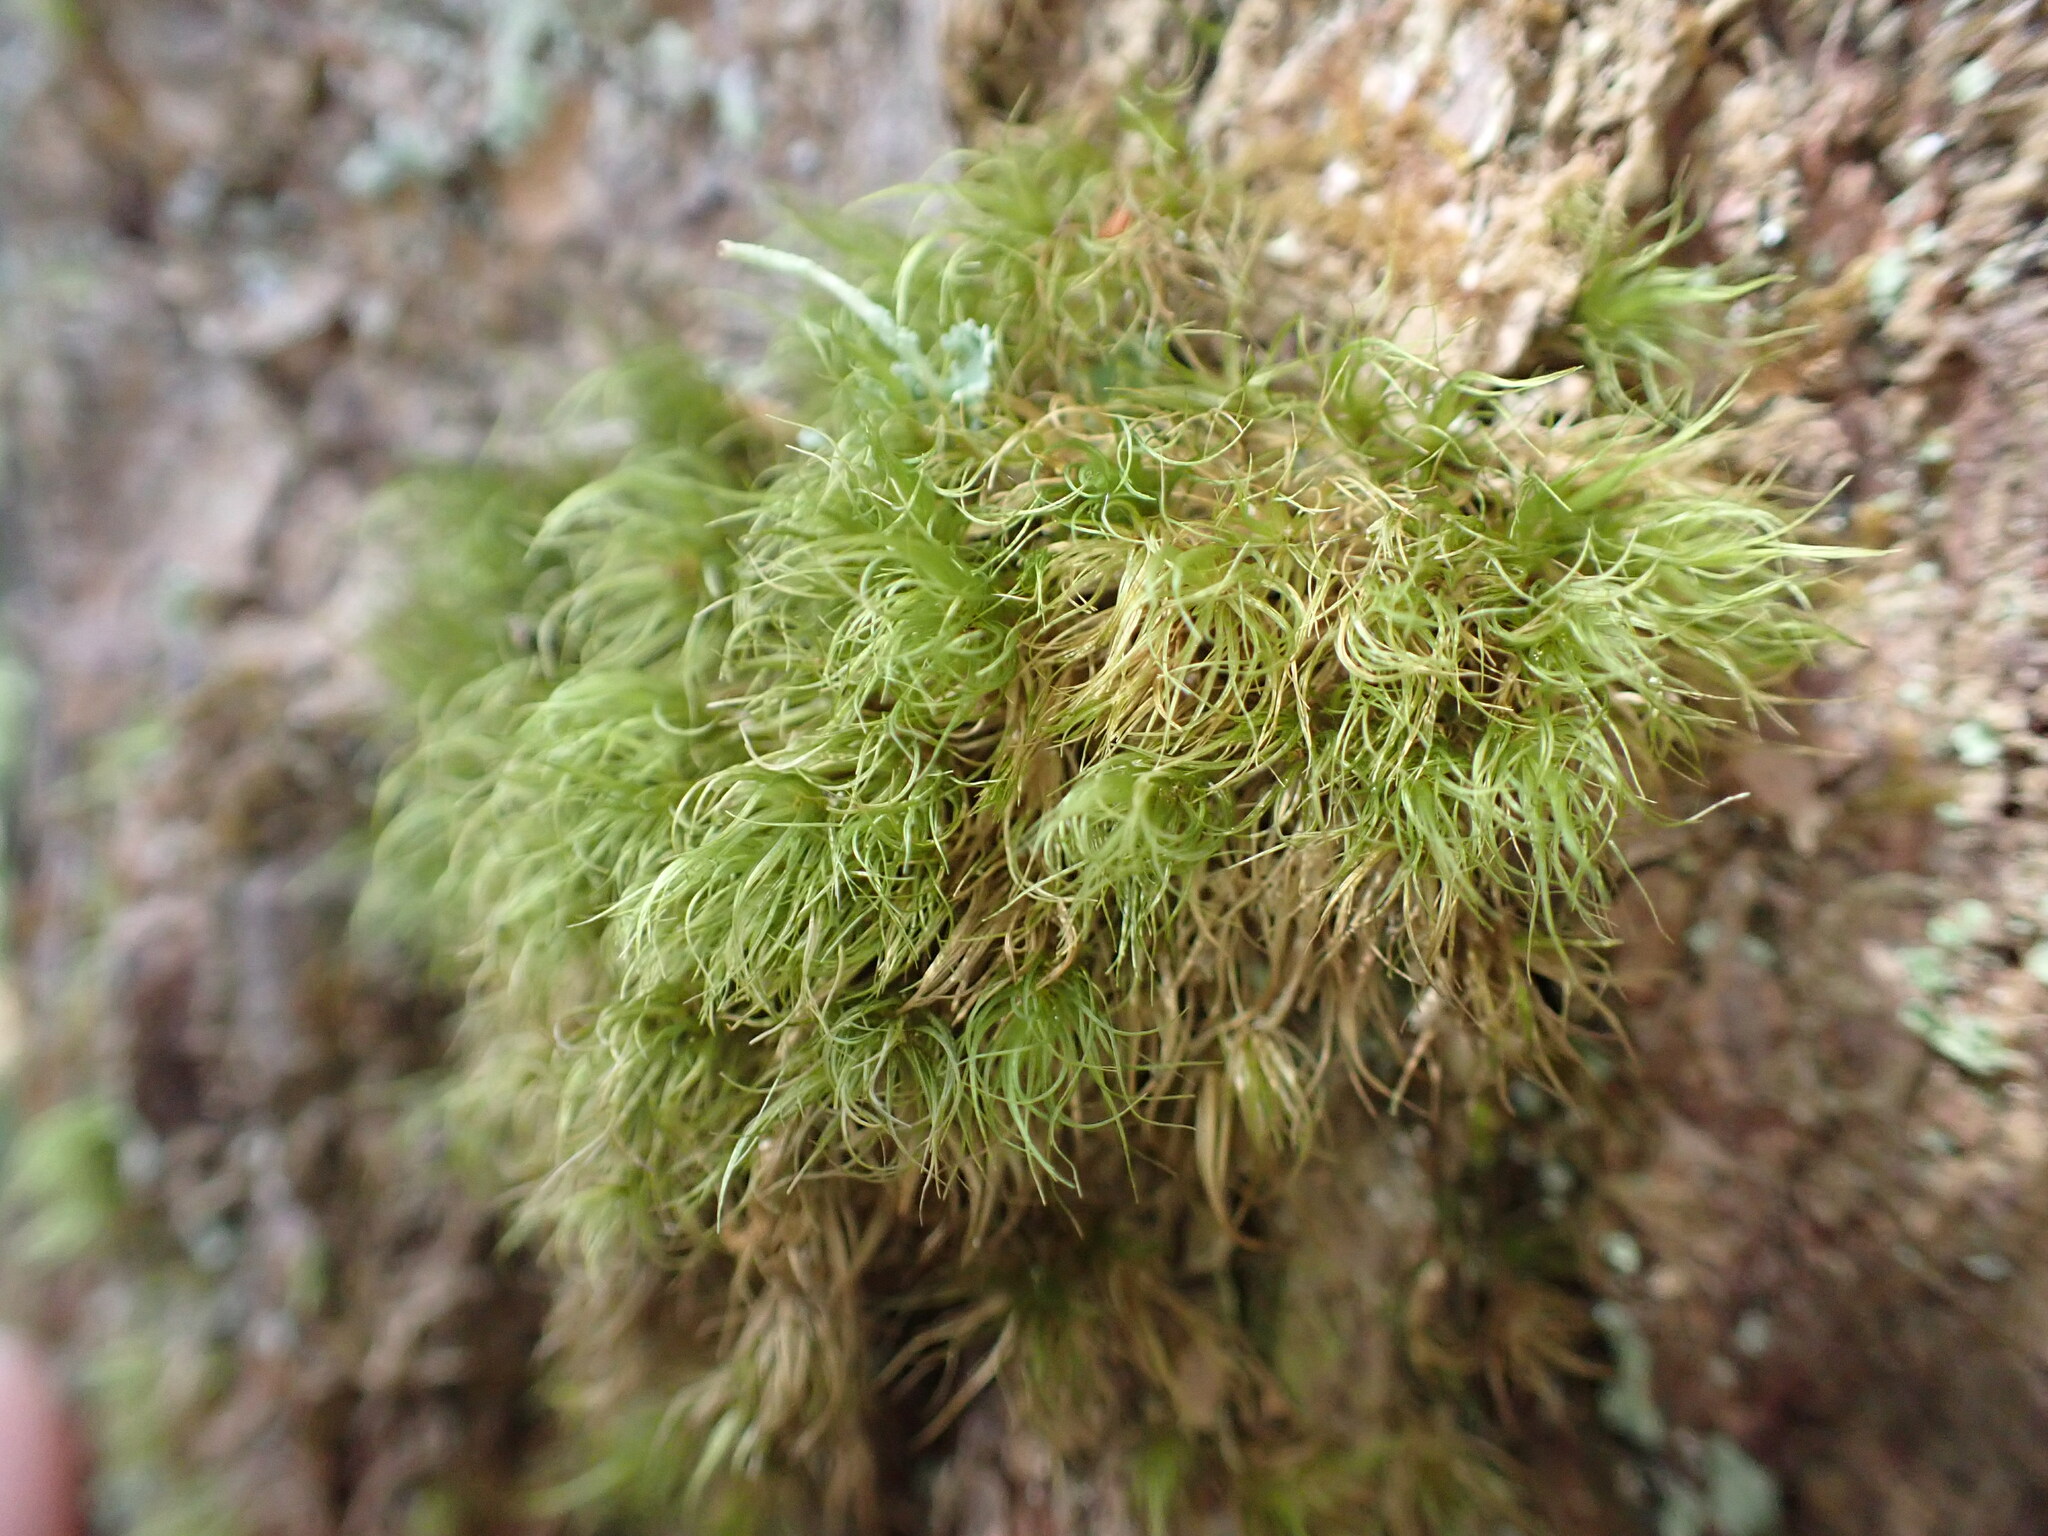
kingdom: Plantae
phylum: Bryophyta
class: Bryopsida
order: Dicranales
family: Dicranaceae
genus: Dicranum
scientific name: Dicranum fuscescens
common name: Curly heron's-bill moss
